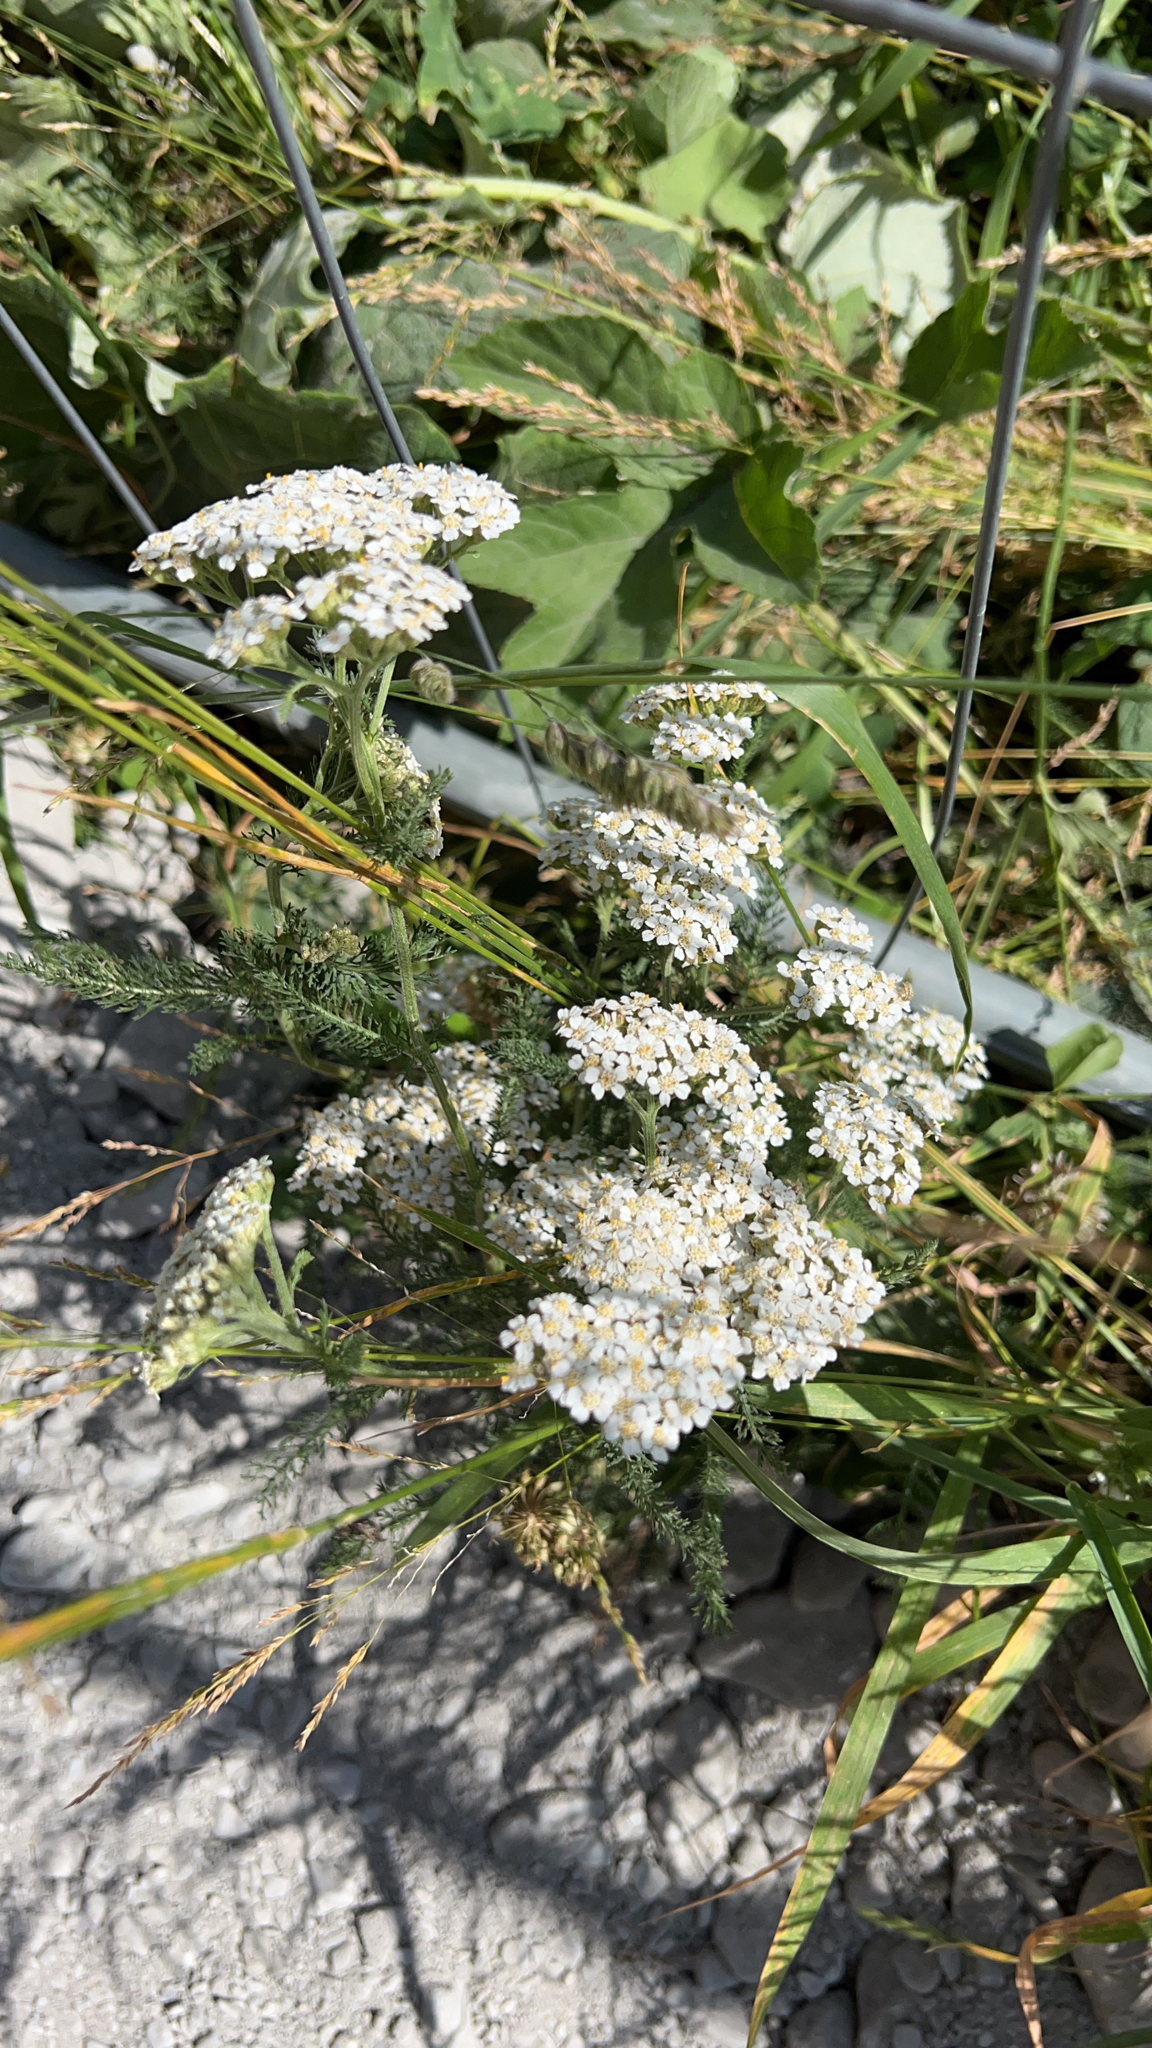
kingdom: Plantae
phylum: Tracheophyta
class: Magnoliopsida
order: Asterales
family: Asteraceae
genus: Achillea
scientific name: Achillea millefolium
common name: Yarrow
